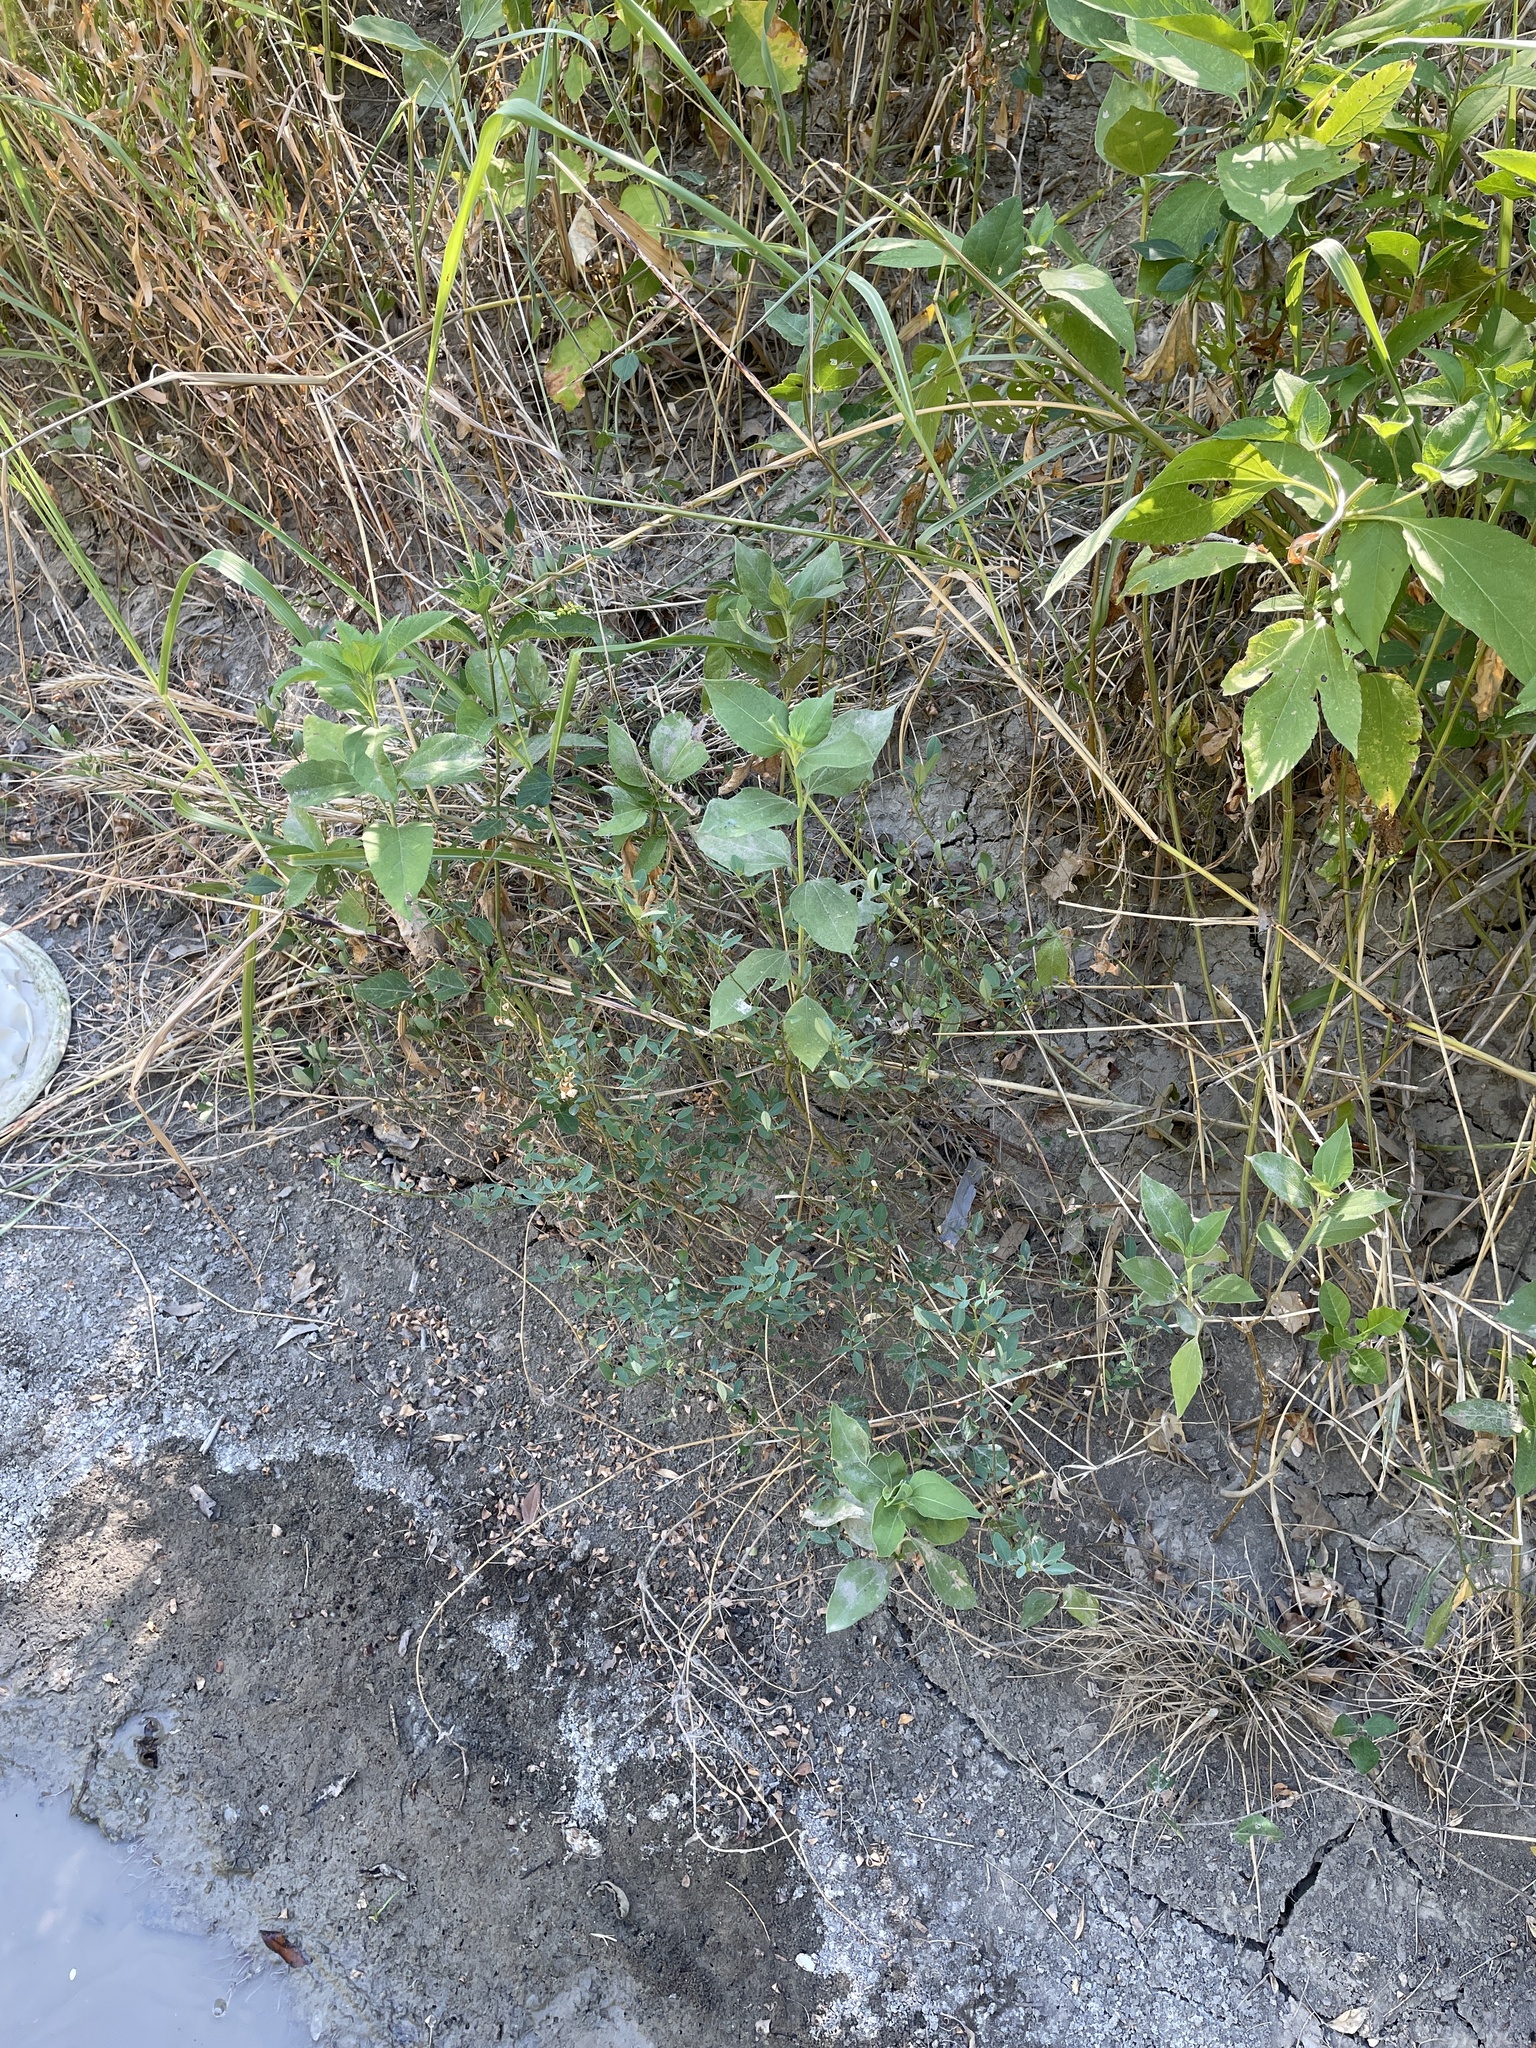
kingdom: Plantae
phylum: Tracheophyta
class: Magnoliopsida
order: Fabales
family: Fabaceae
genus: Melilotus
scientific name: Melilotus officinalis
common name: Sweetclover
